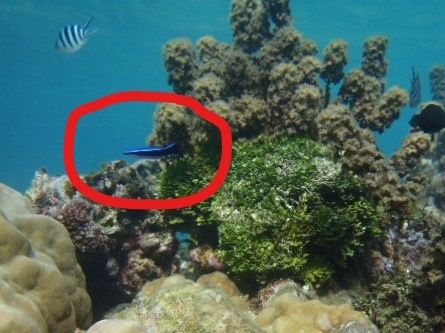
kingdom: Animalia
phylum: Chordata
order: Perciformes
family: Labridae
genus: Labroides
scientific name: Labroides dimidiatus
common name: Blue diesel wrasse
